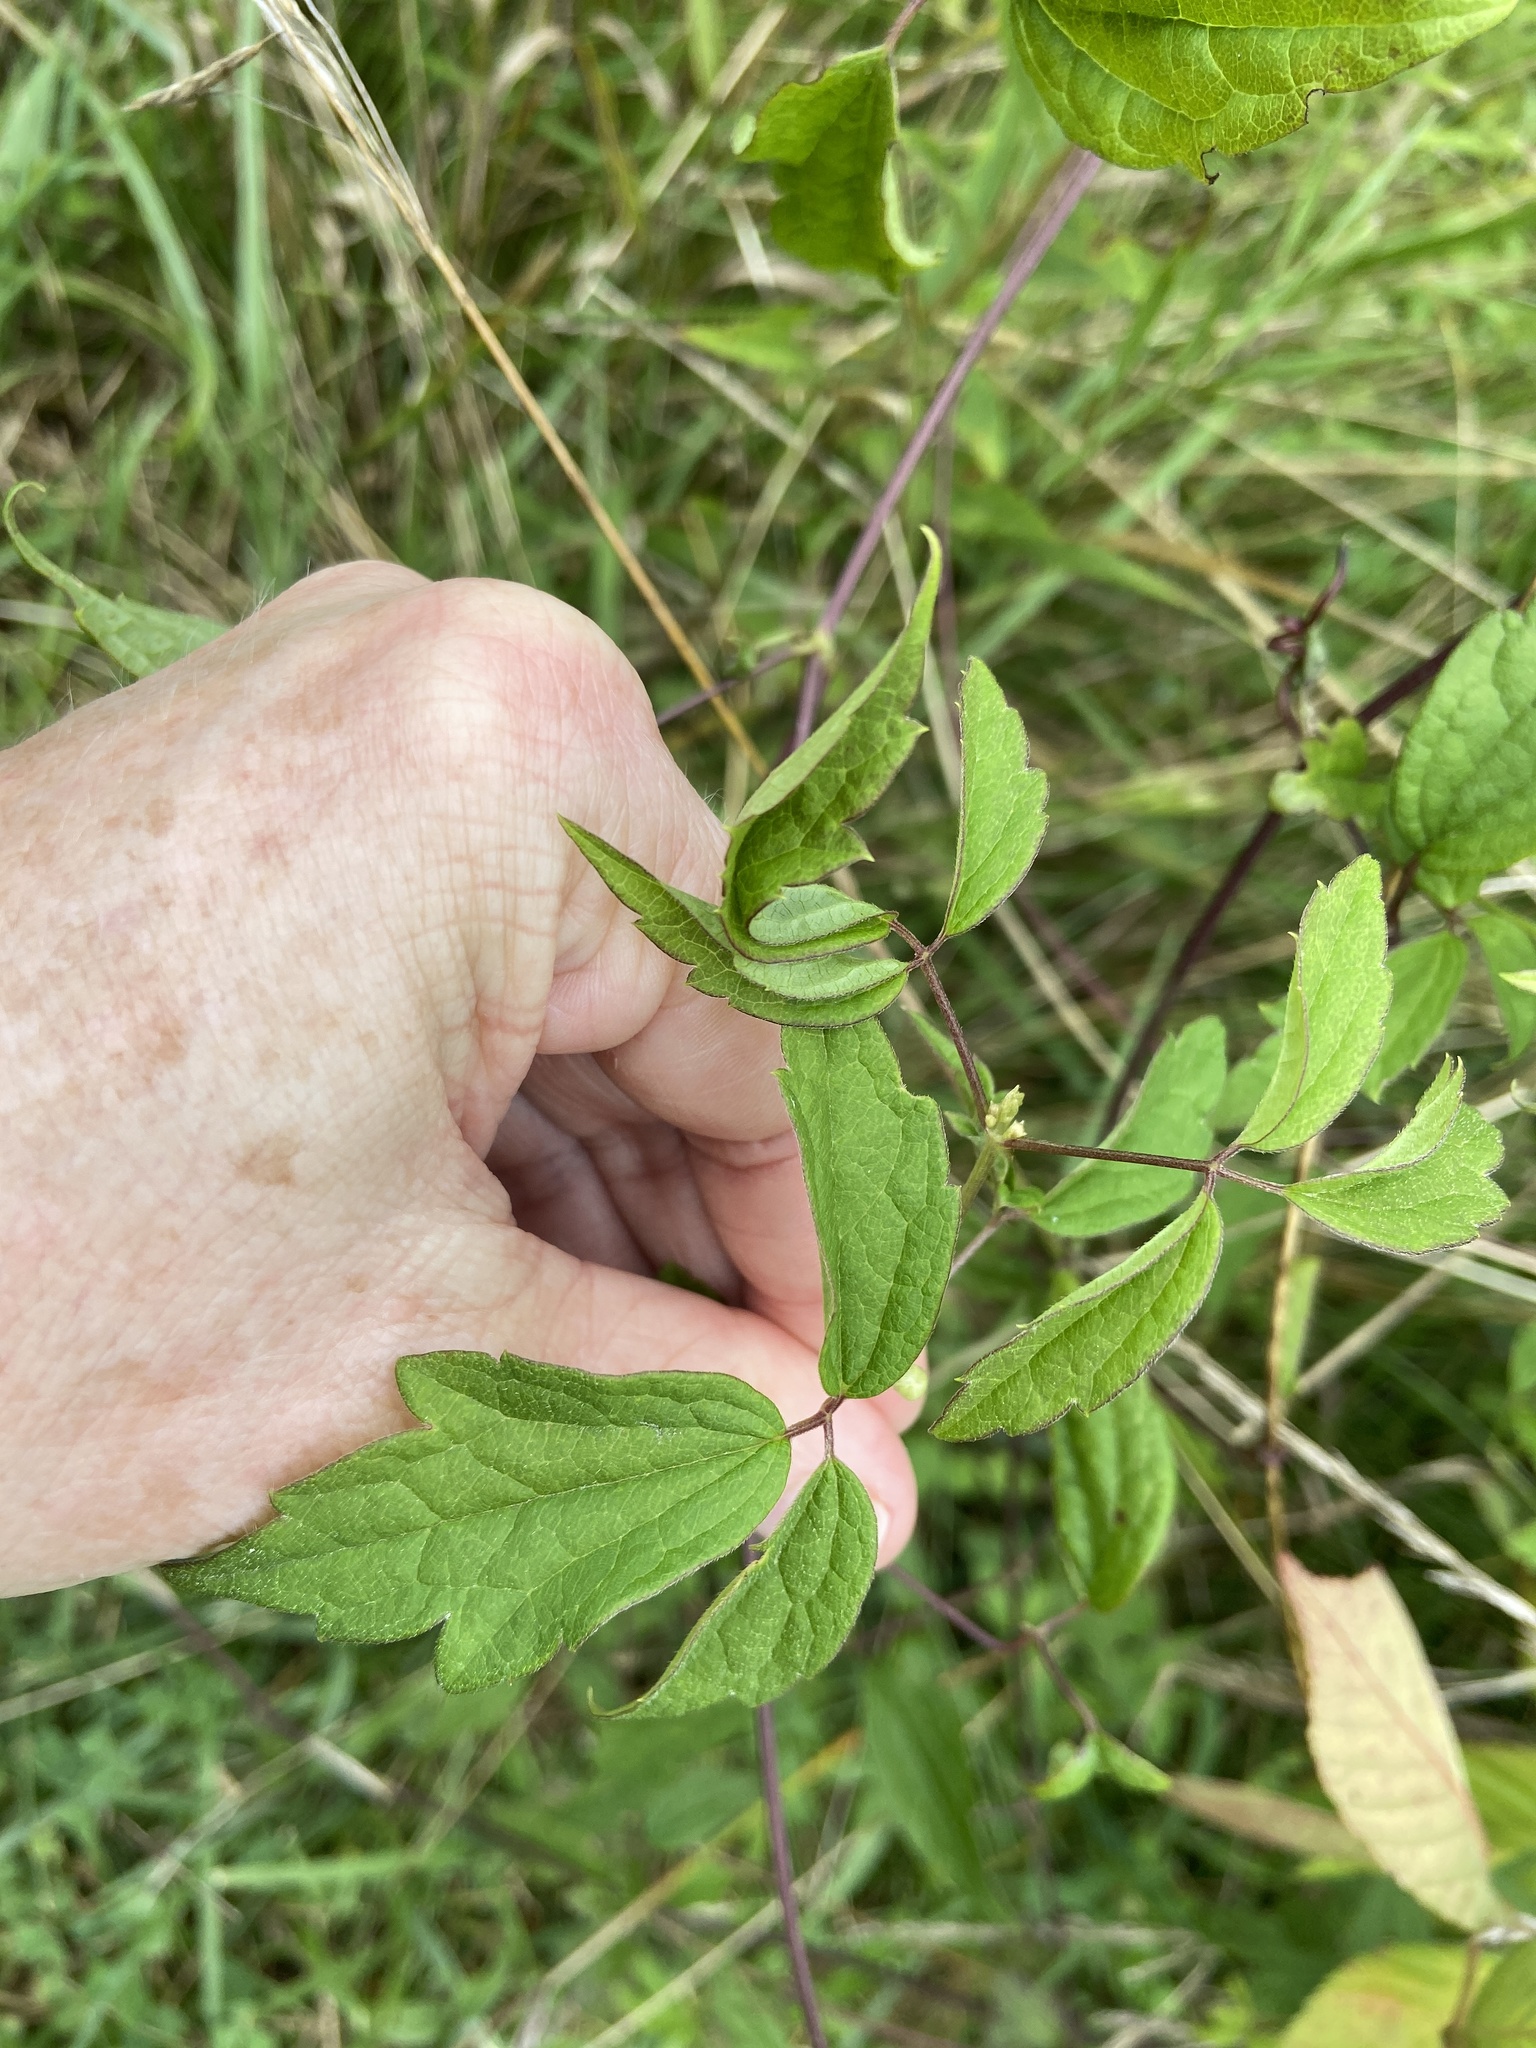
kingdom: Plantae
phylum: Tracheophyta
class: Magnoliopsida
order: Ranunculales
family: Ranunculaceae
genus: Clematis
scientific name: Clematis virginiana
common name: Virgin's-bower
